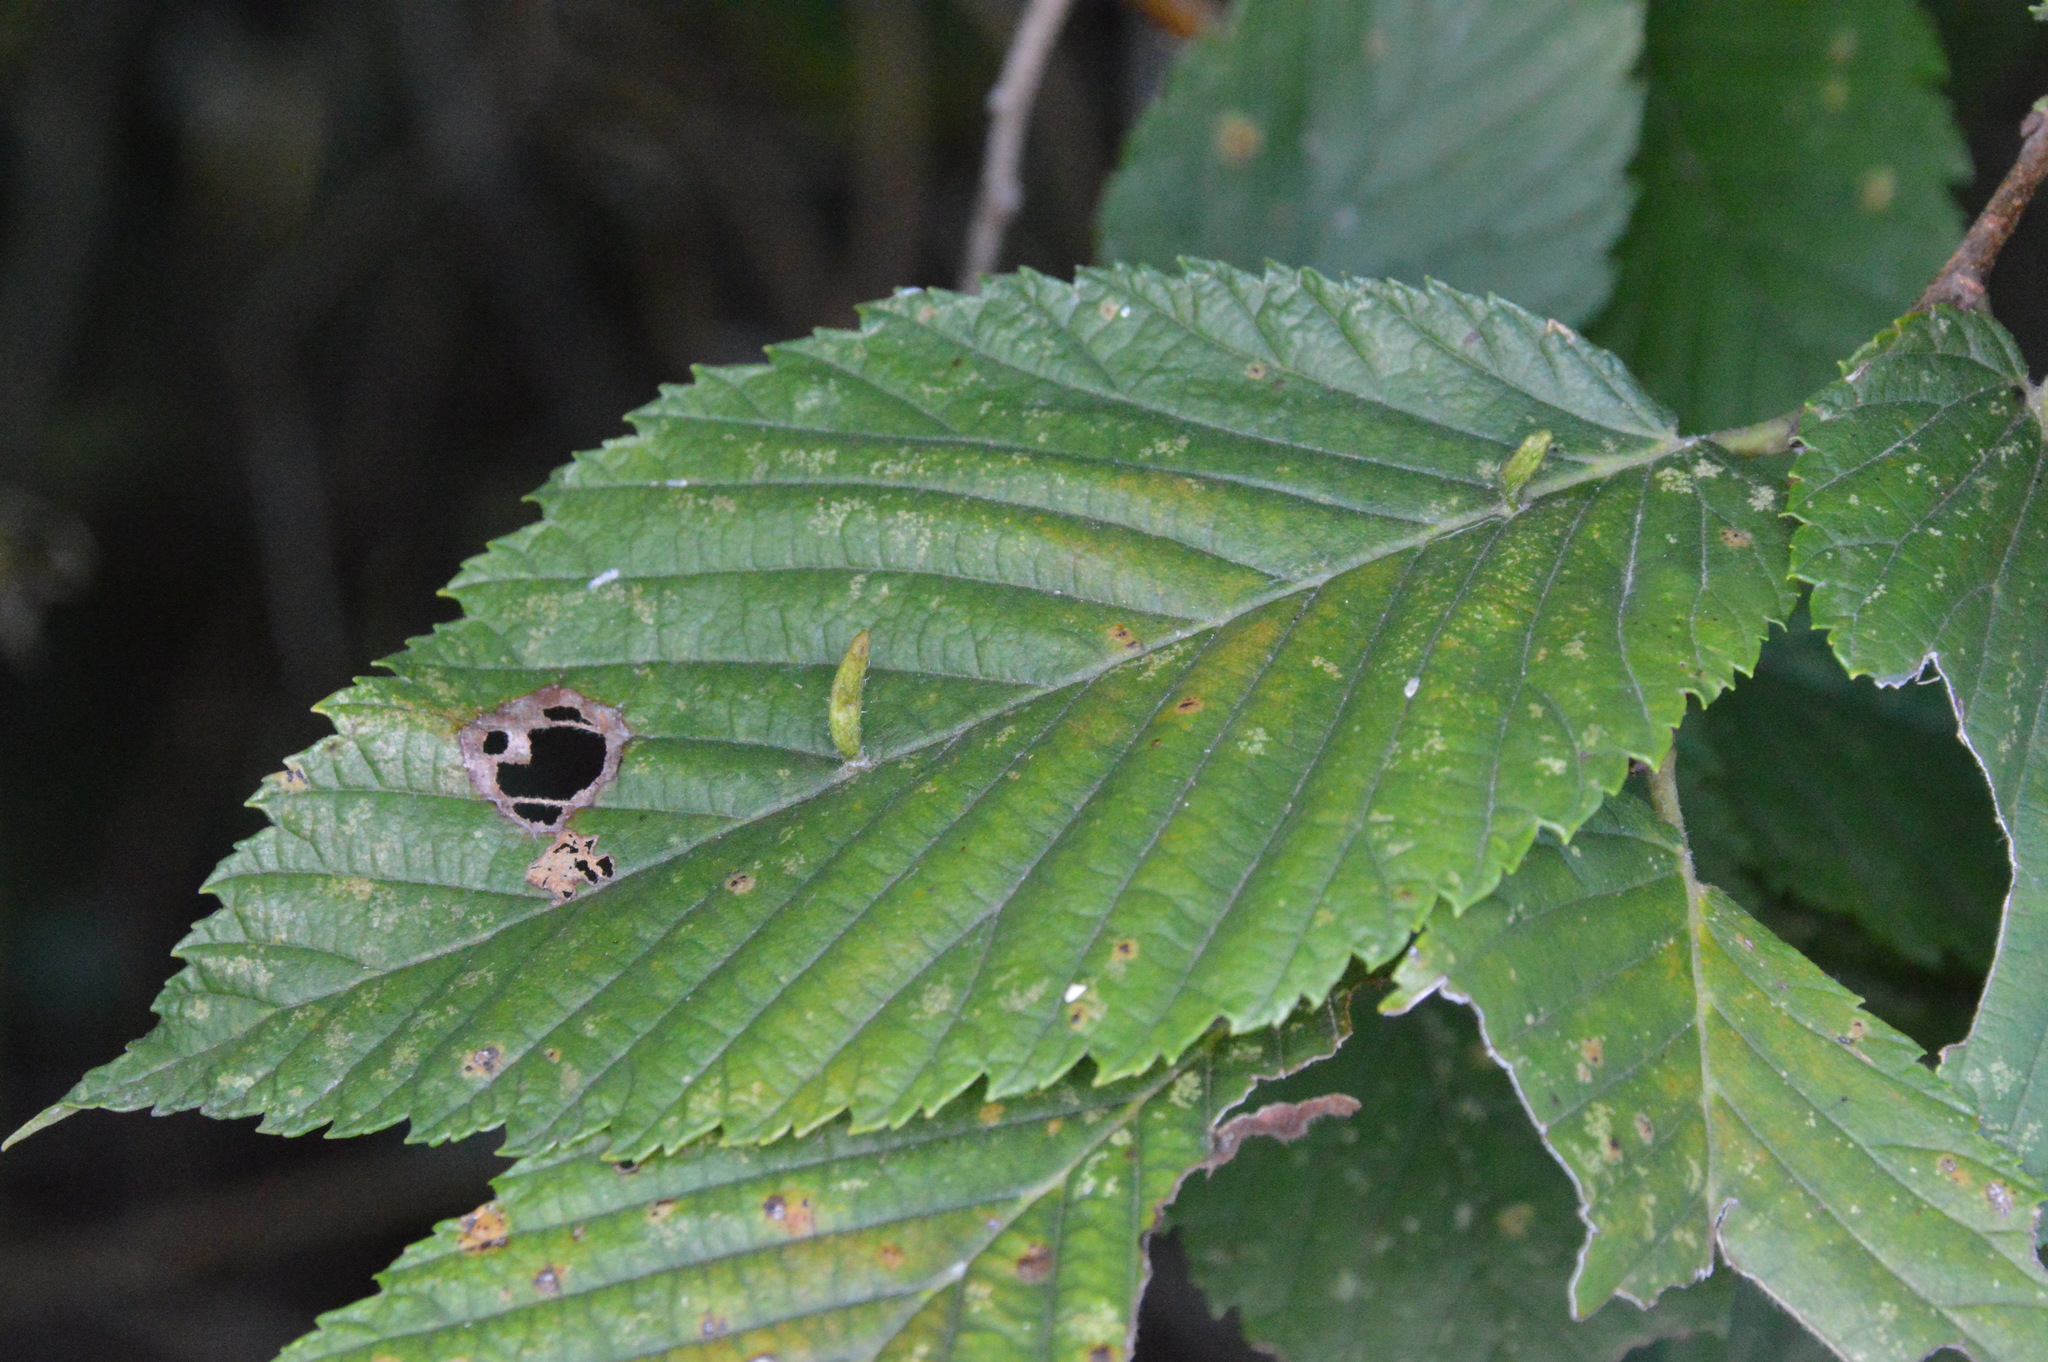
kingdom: Animalia
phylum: Arthropoda
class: Arachnida
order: Trombidiformes
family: Eriophyidae
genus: Aceria
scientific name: Aceria
